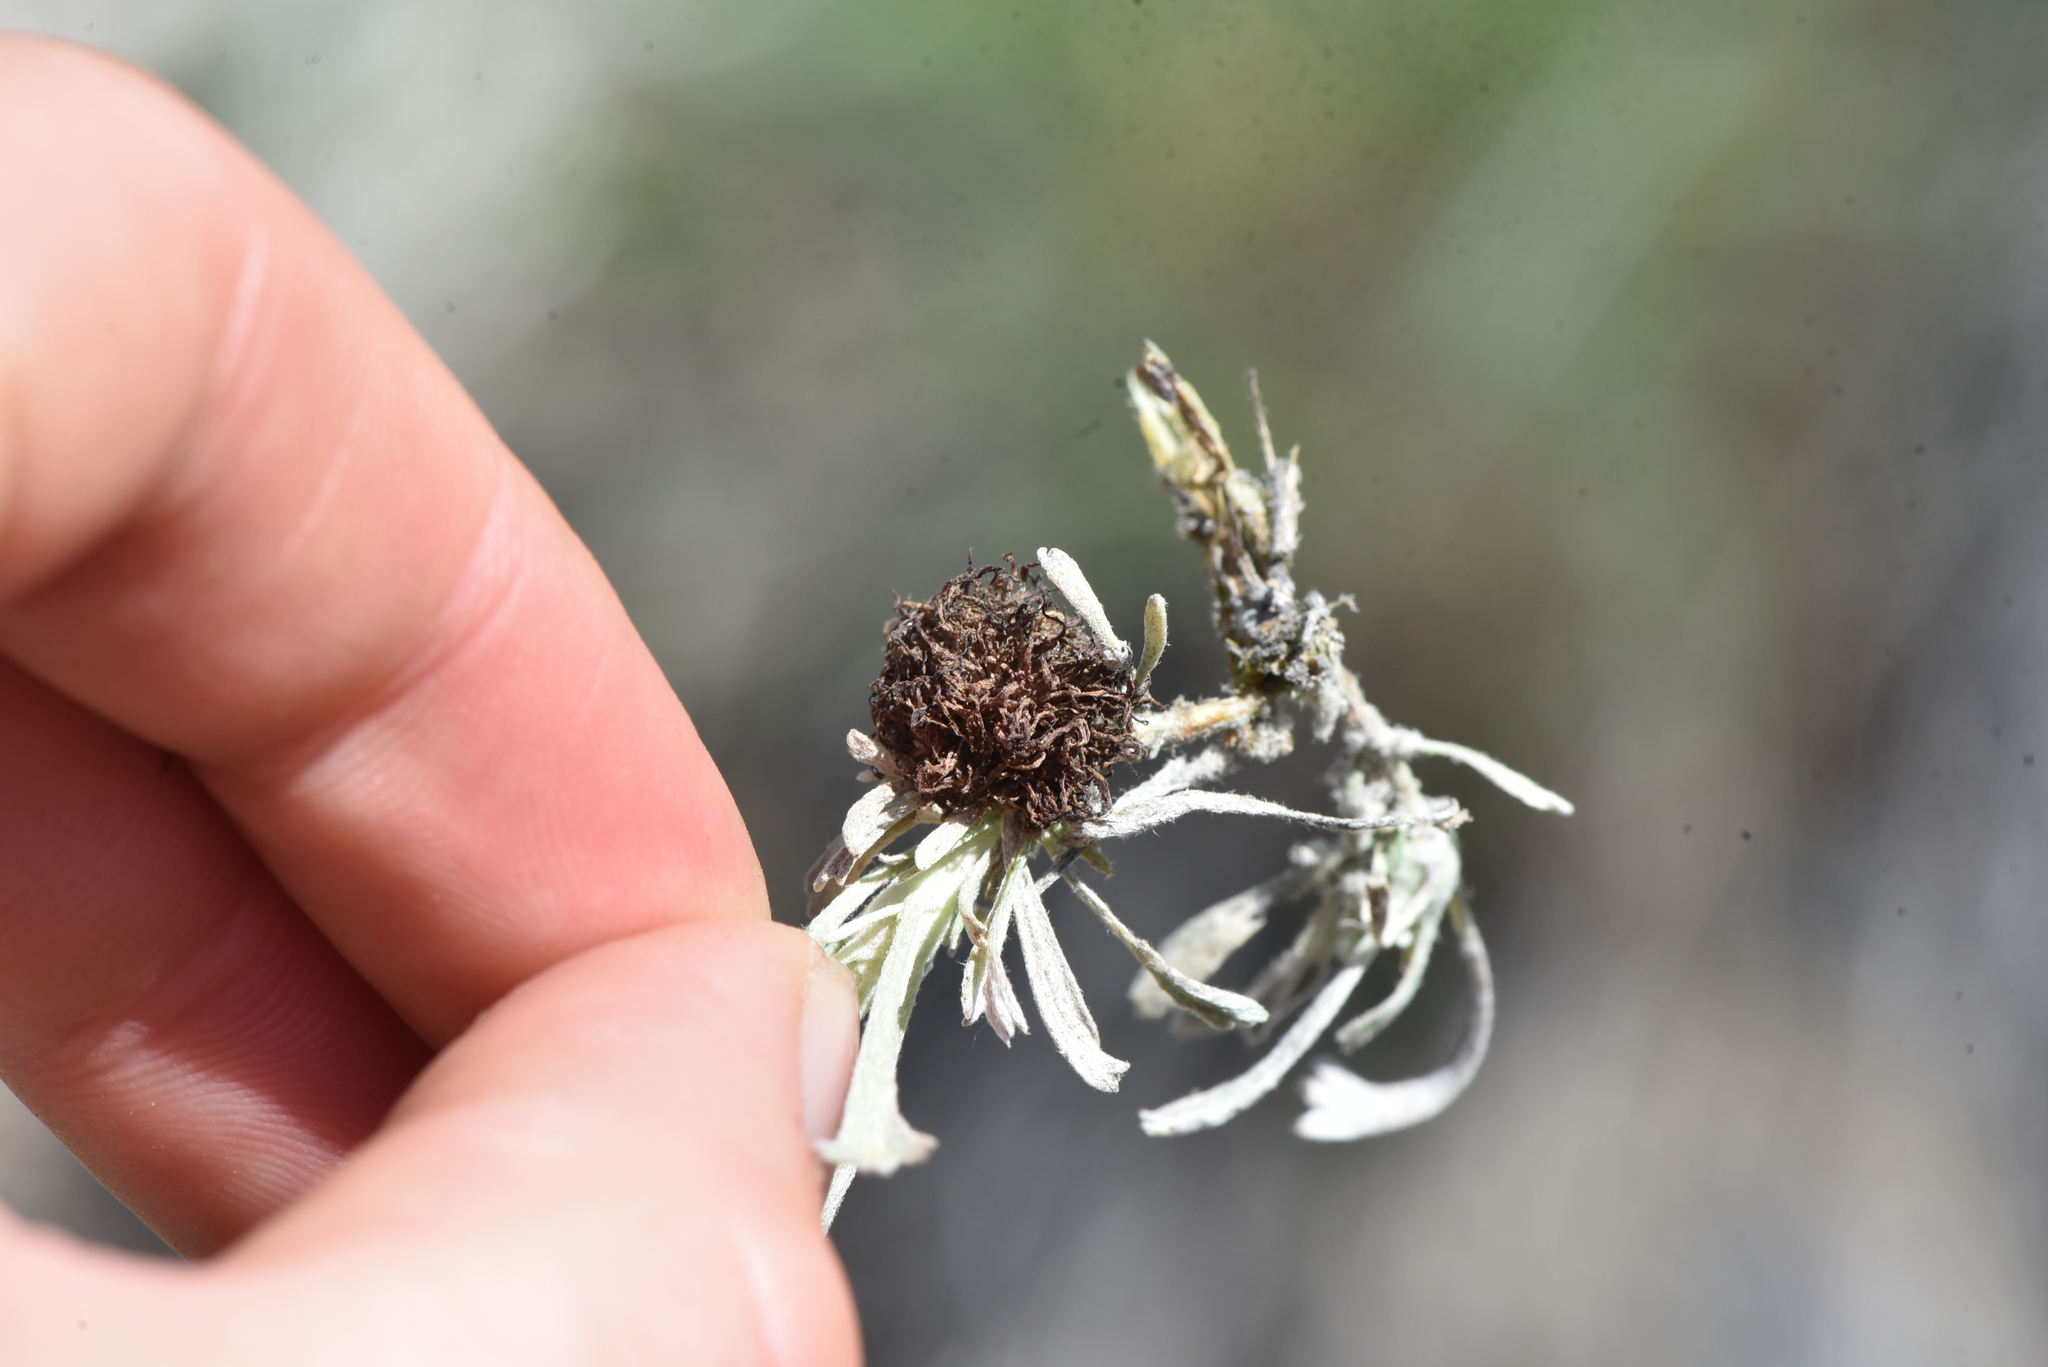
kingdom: Plantae
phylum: Tracheophyta
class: Magnoliopsida
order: Asterales
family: Asteraceae
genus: Artemisia
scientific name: Artemisia tridentata
